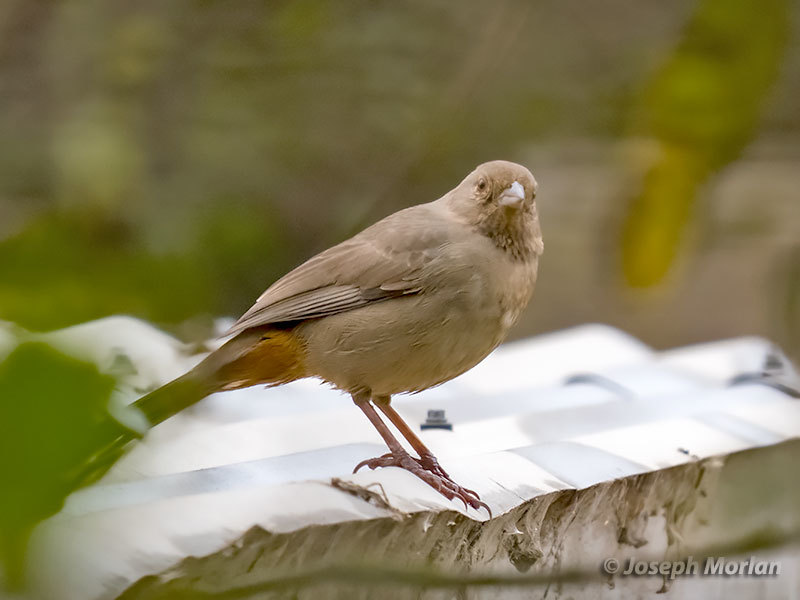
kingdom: Animalia
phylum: Chordata
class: Aves
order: Passeriformes
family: Passerellidae
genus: Melozone
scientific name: Melozone crissalis
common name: California towhee
